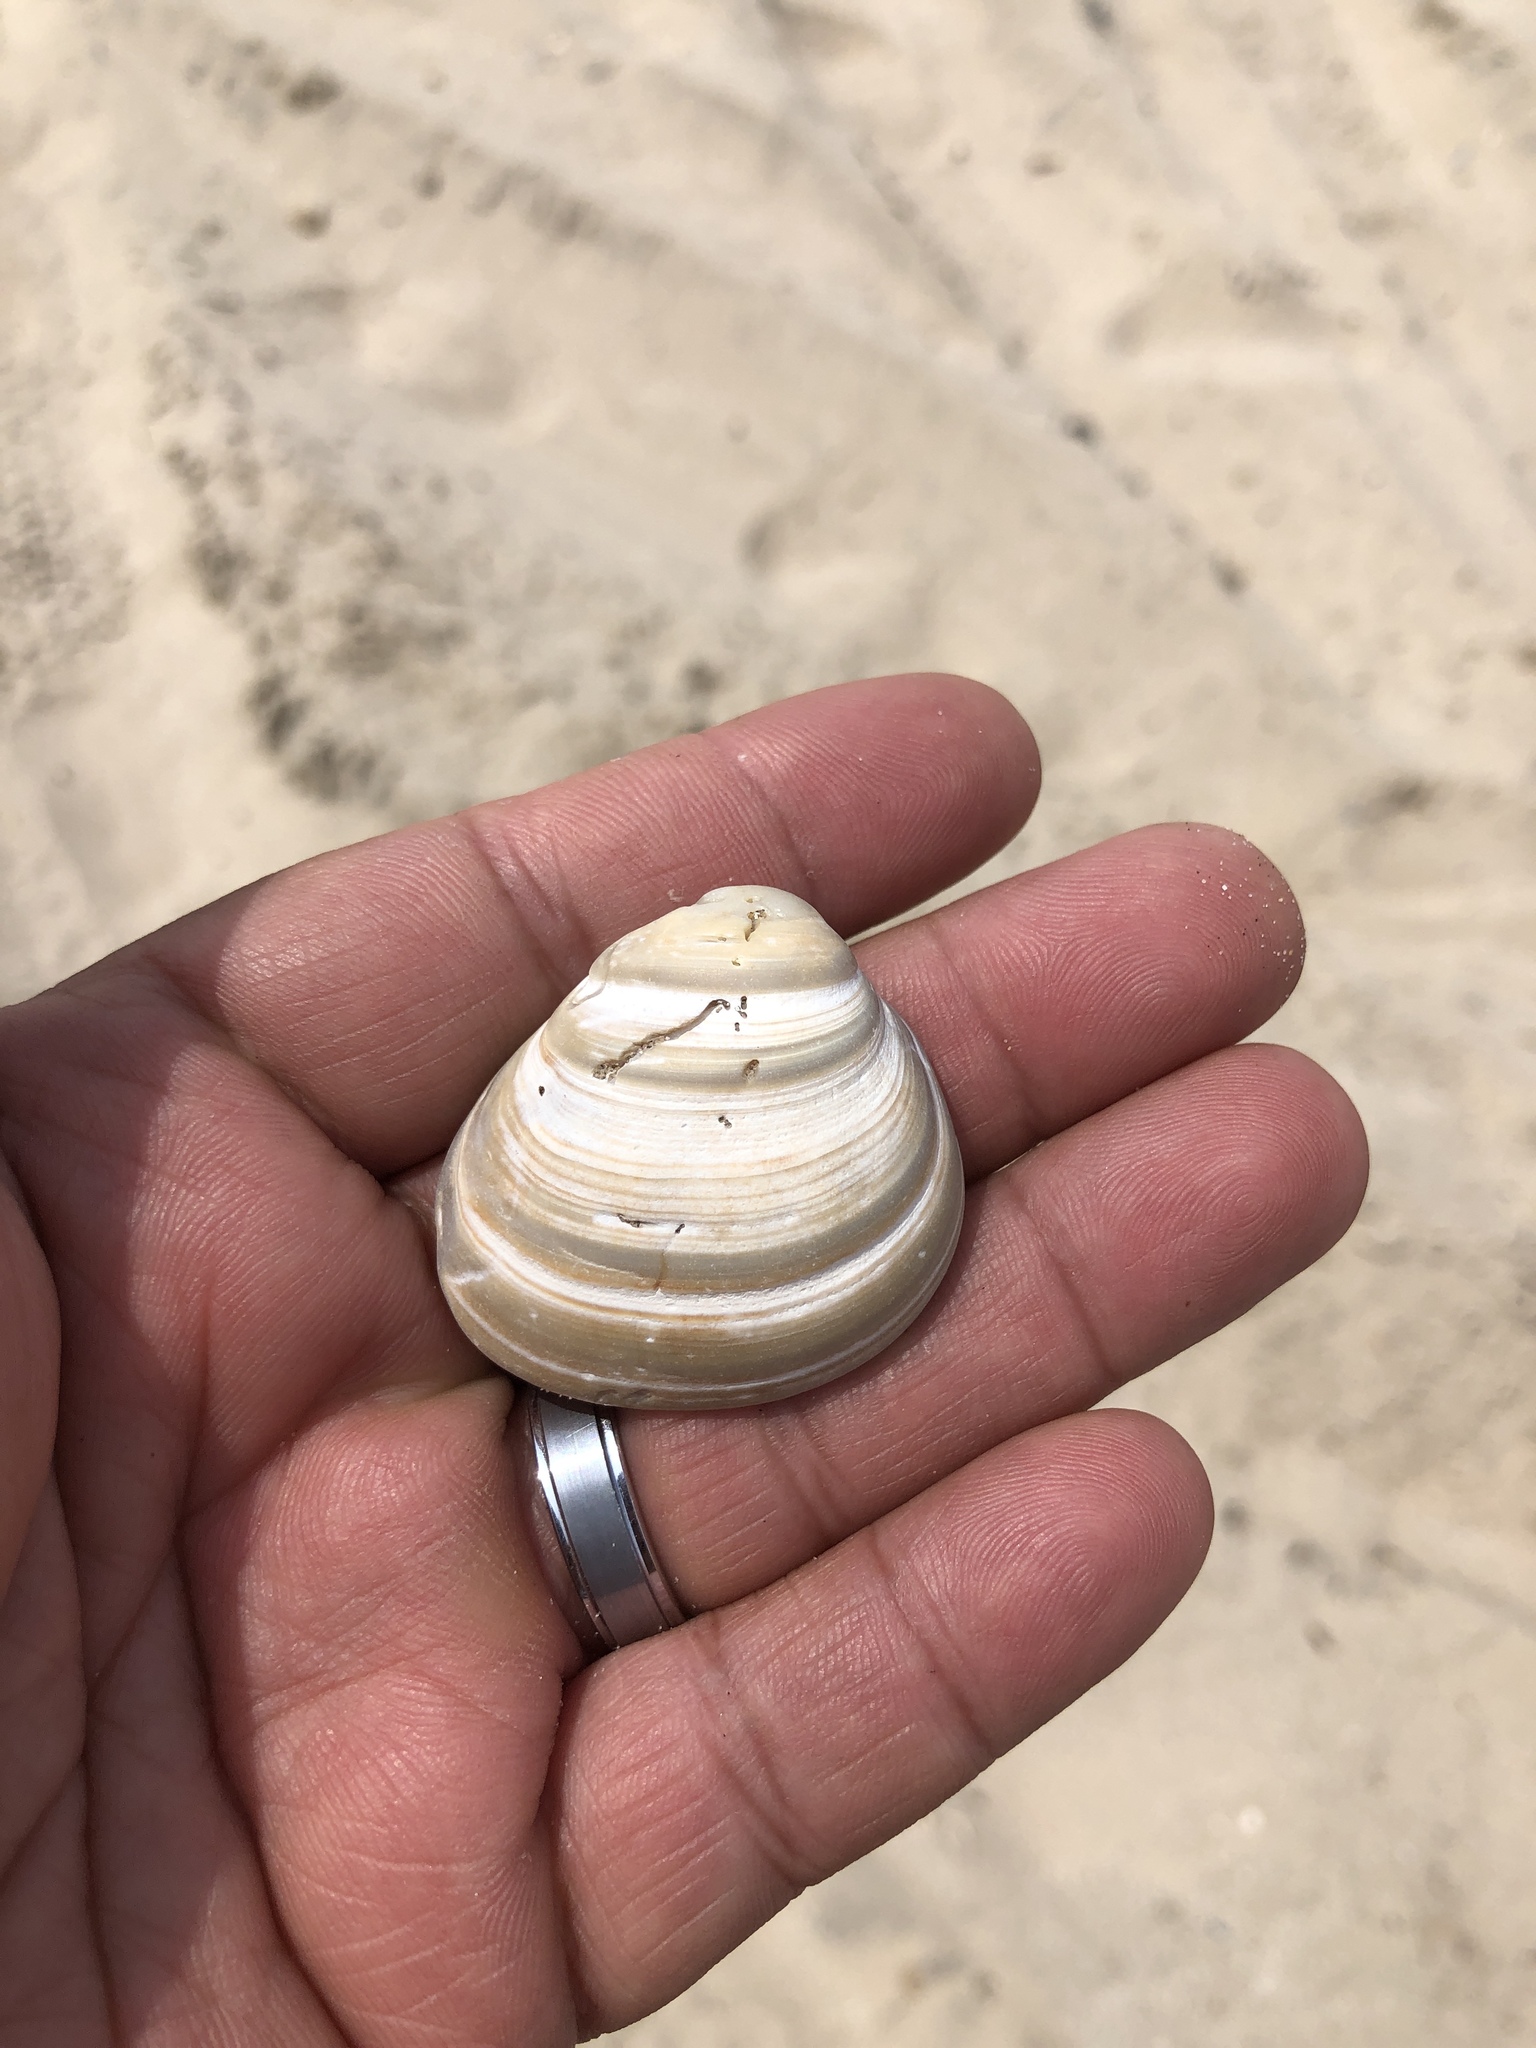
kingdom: Animalia
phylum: Mollusca
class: Bivalvia
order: Venerida
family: Mactridae
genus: Rangia
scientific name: Rangia cuneata
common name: Atlantic rangia
